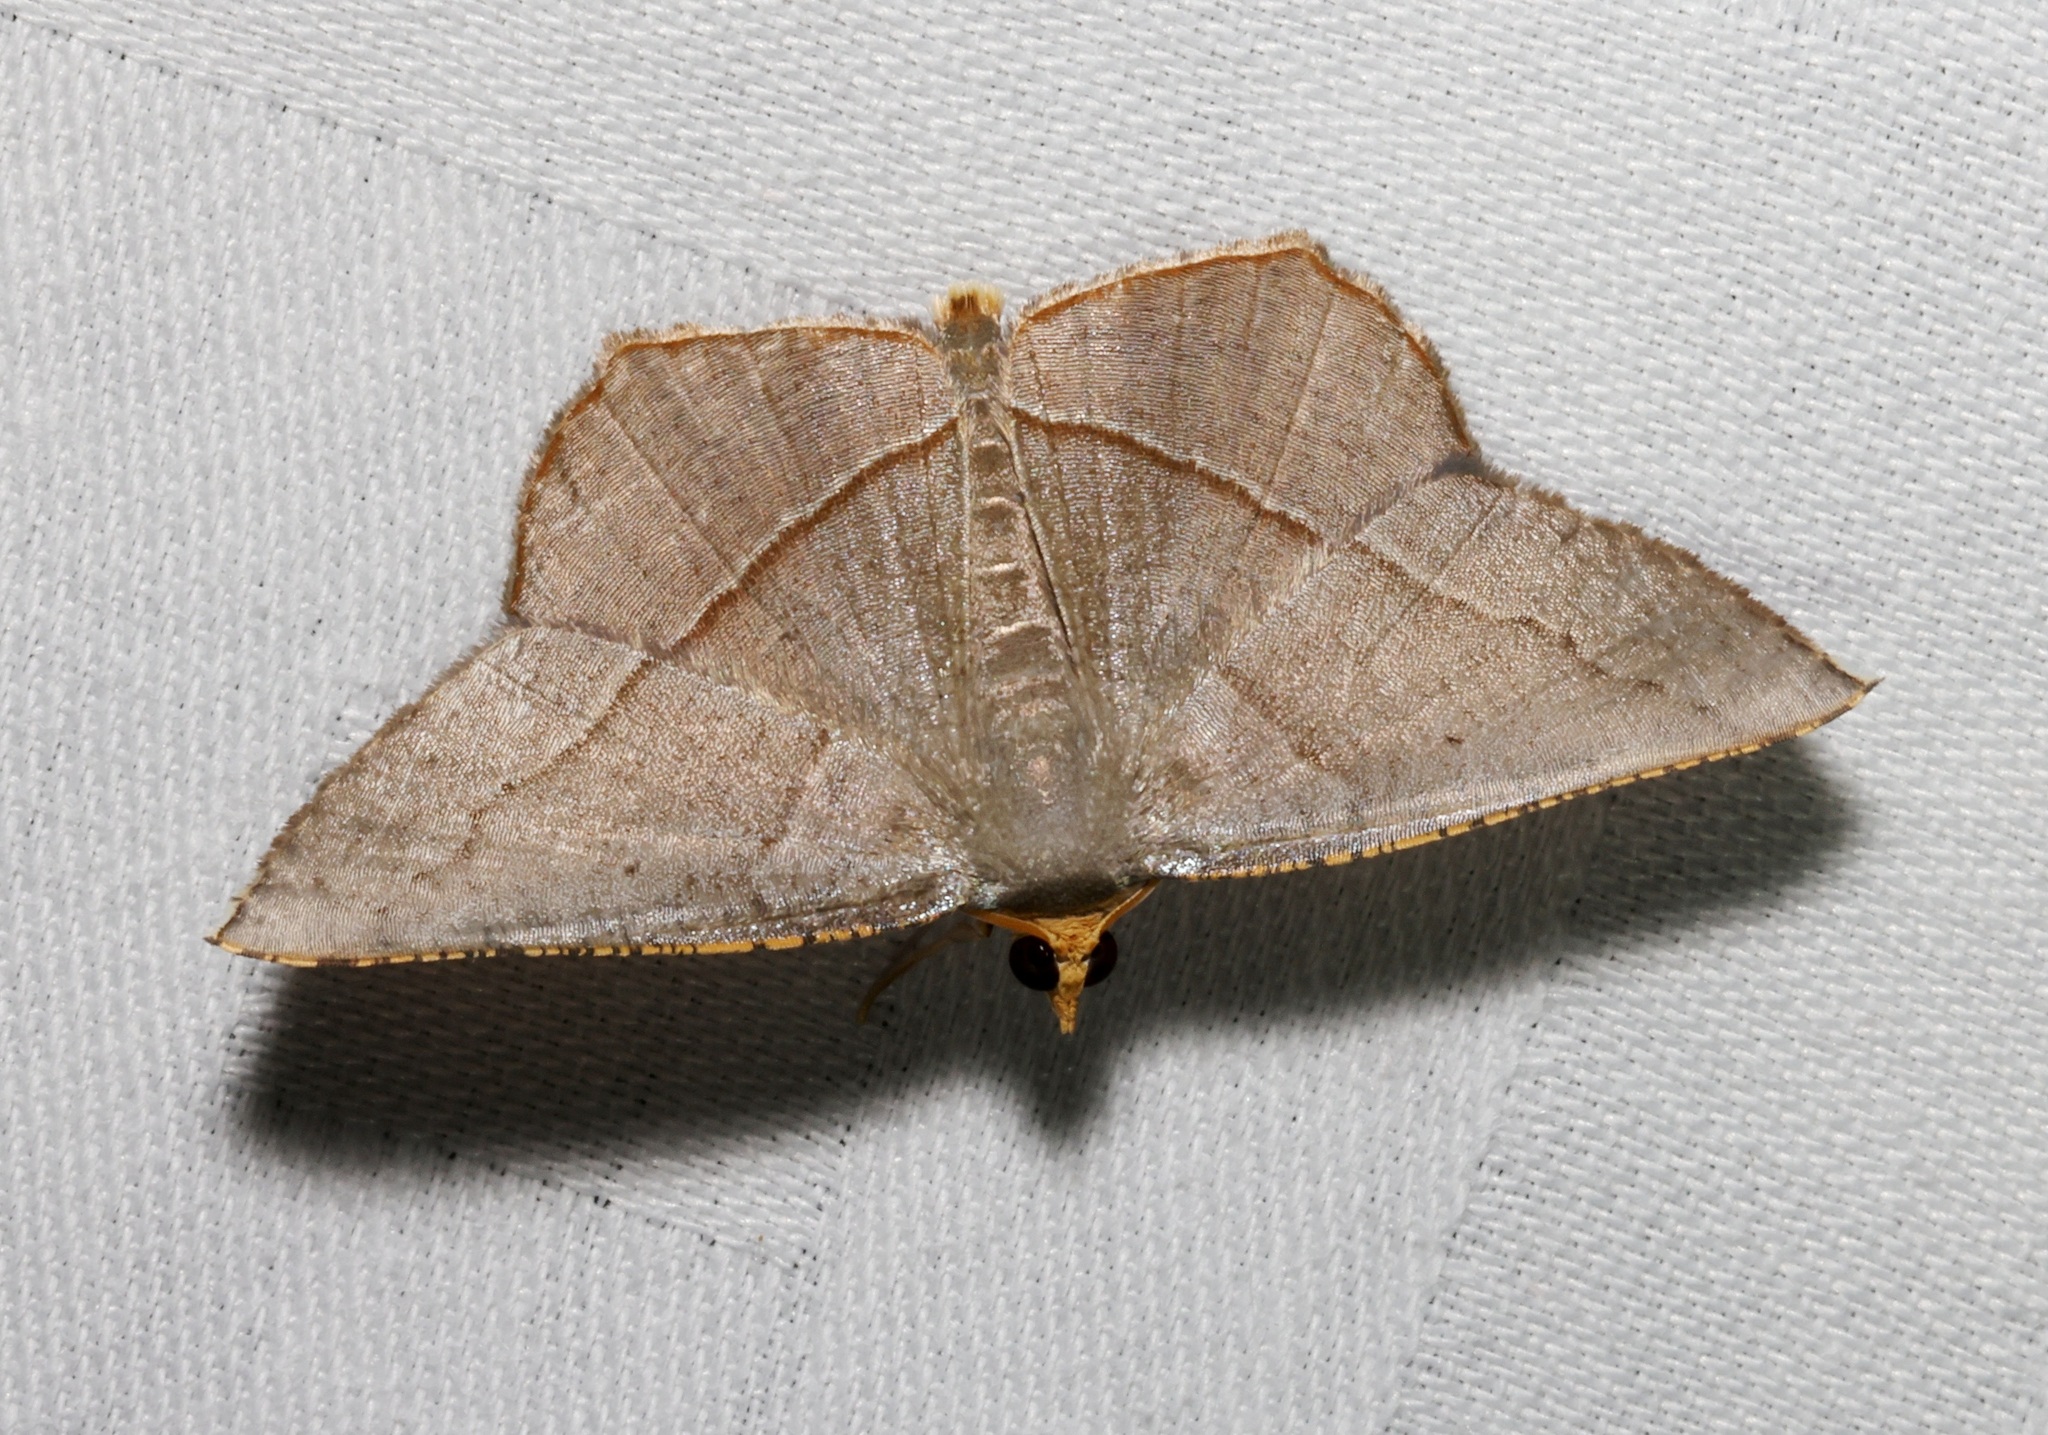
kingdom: Animalia
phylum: Arthropoda
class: Insecta
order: Lepidoptera
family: Geometridae
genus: Plesiomorpha
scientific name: Plesiomorpha flaviceps
